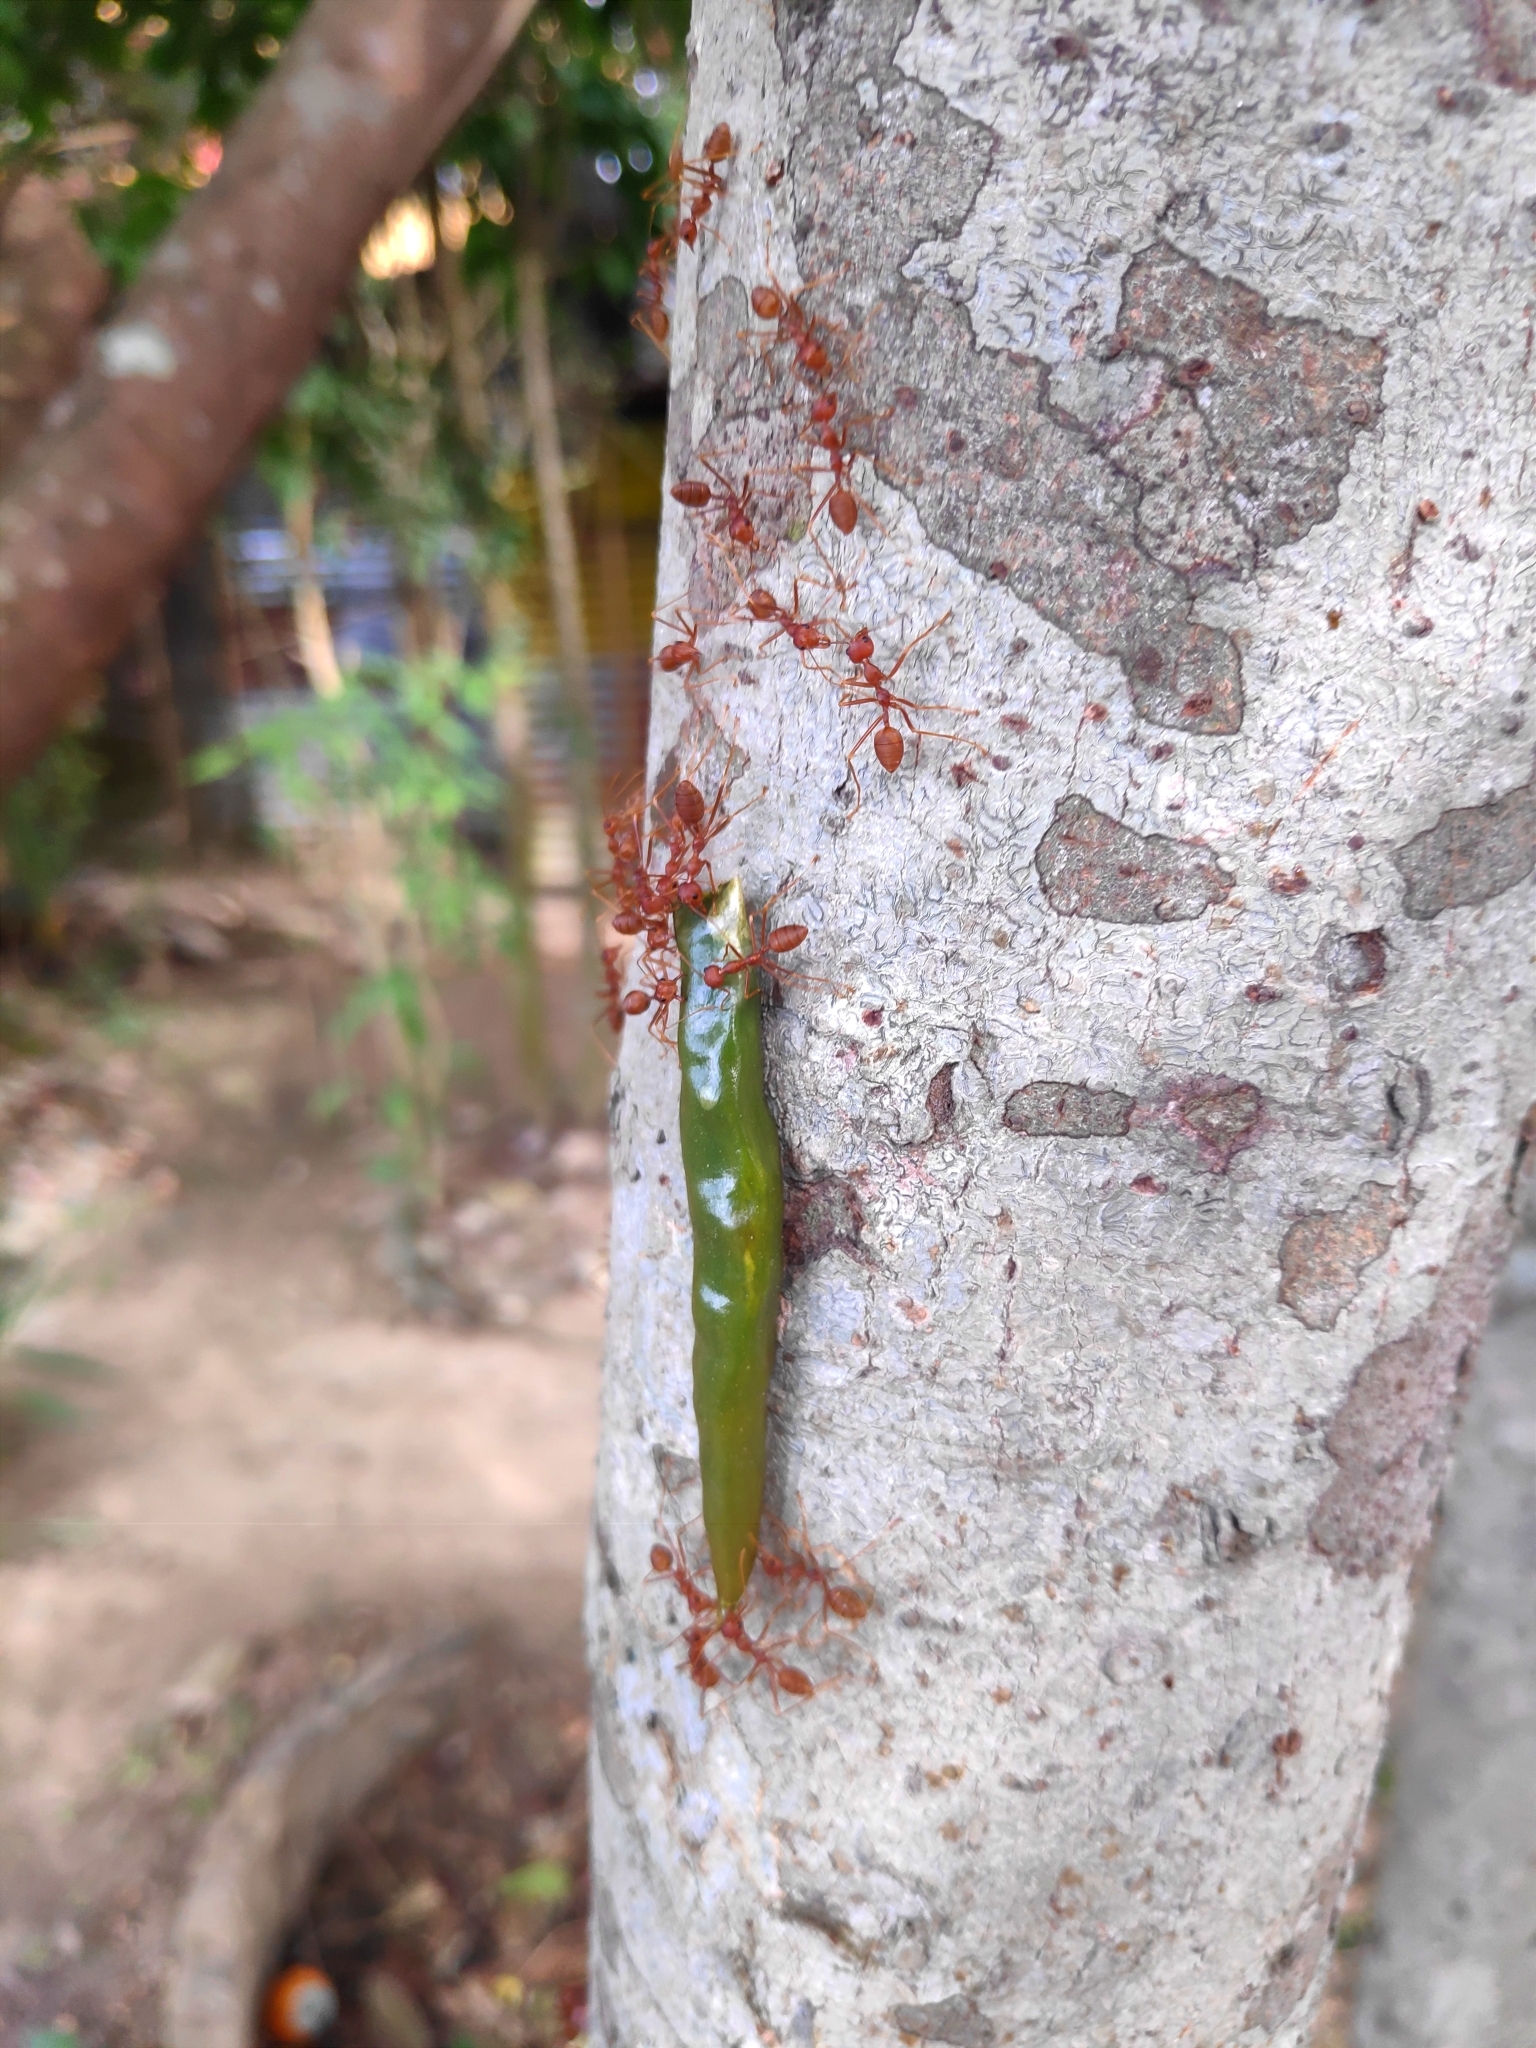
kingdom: Animalia
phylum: Arthropoda
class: Insecta
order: Hymenoptera
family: Formicidae
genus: Oecophylla
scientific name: Oecophylla smaragdina
